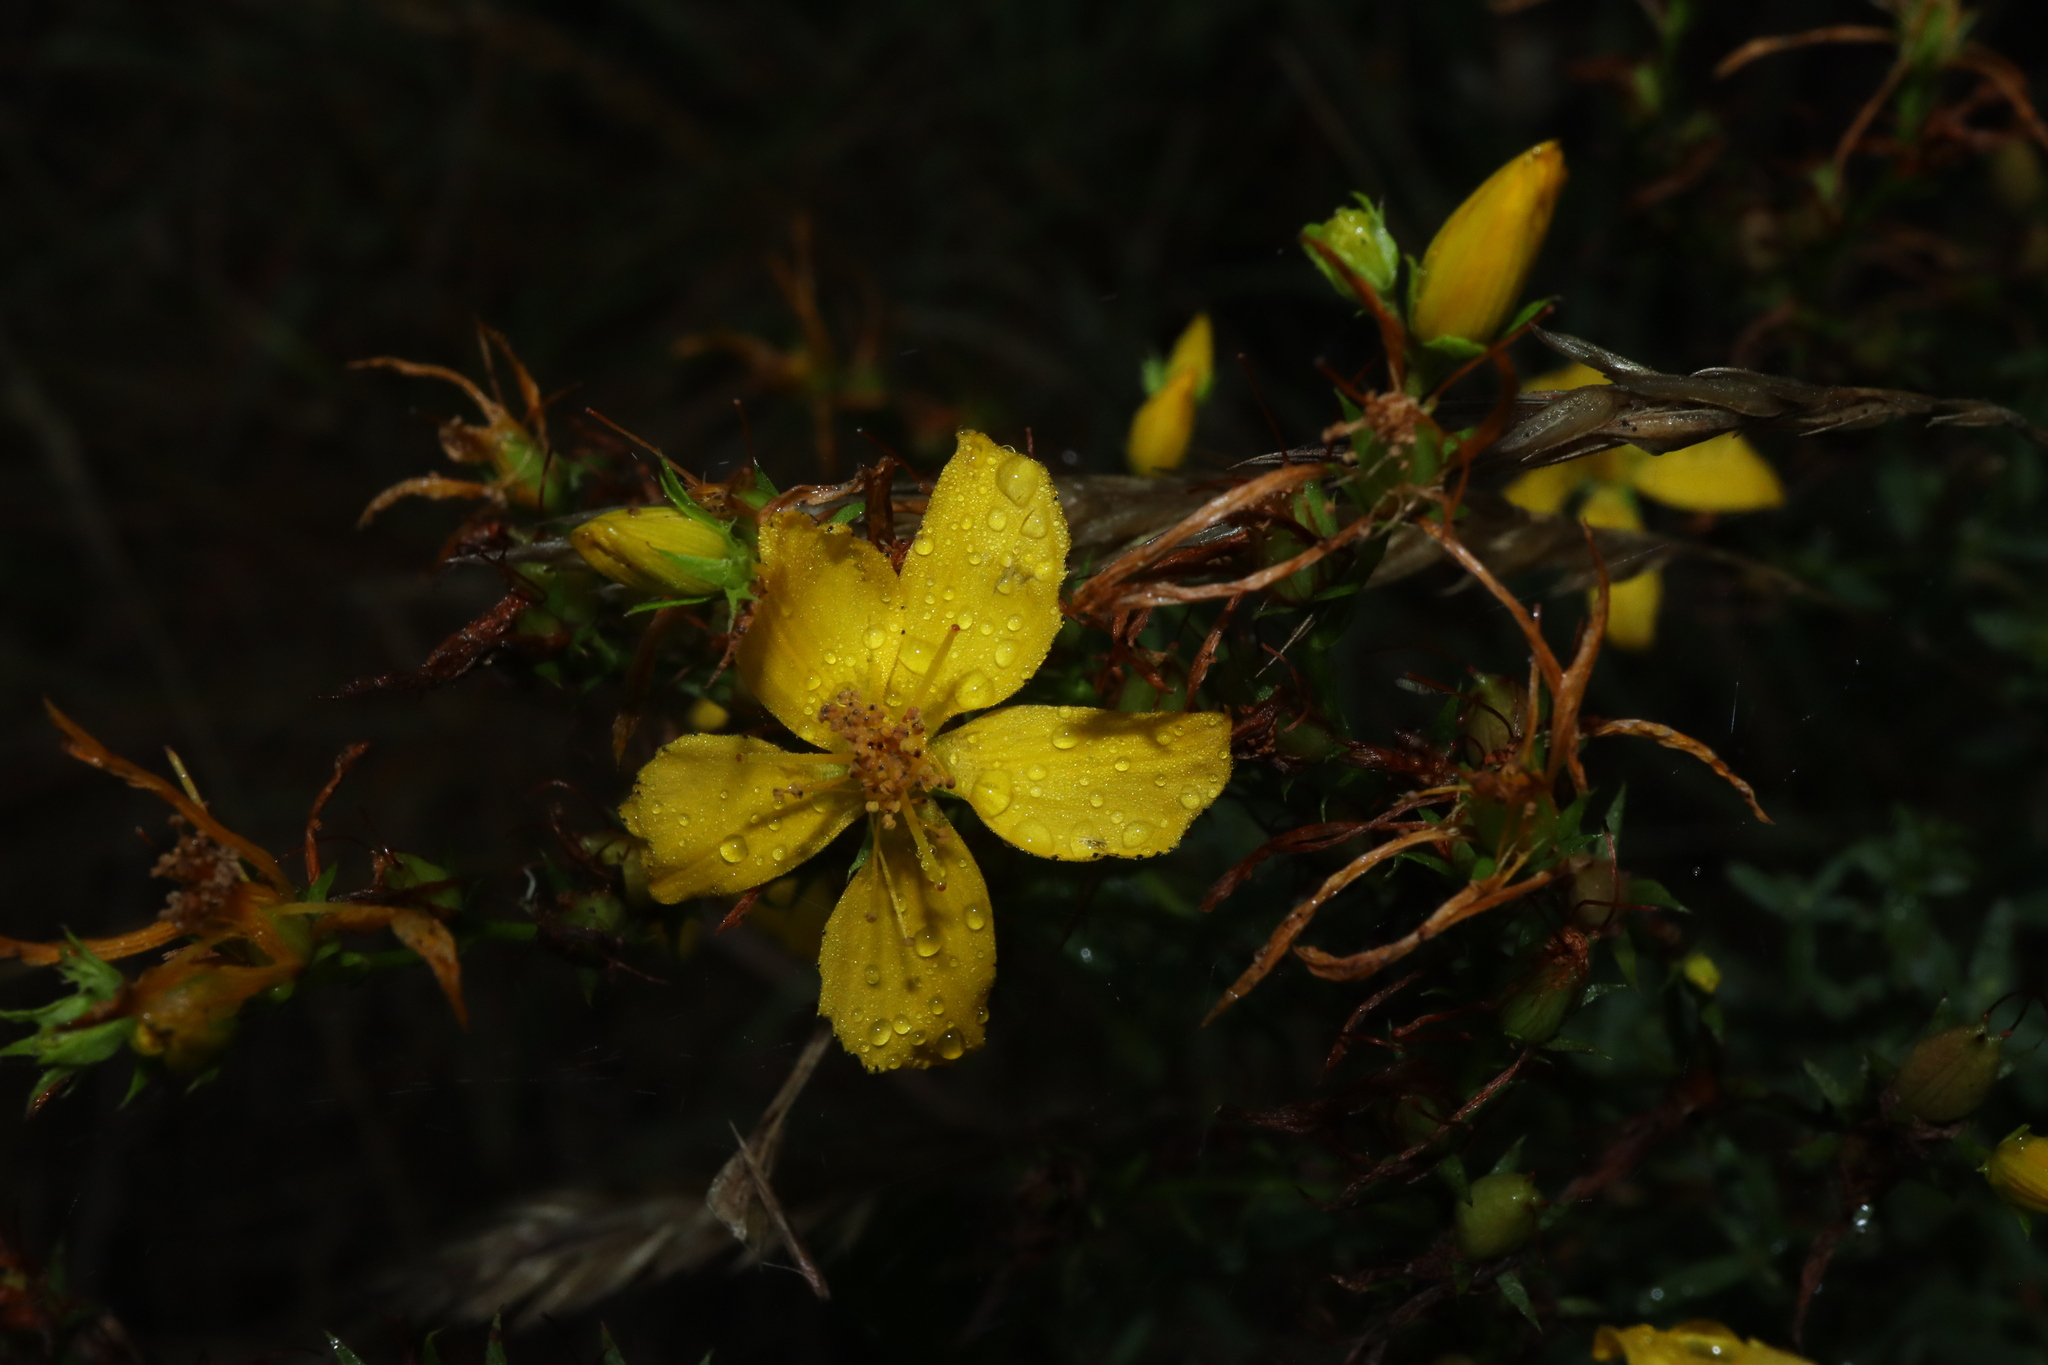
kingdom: Plantae
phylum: Tracheophyta
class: Magnoliopsida
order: Malpighiales
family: Hypericaceae
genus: Hypericum
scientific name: Hypericum perforatum
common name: Common st. johnswort
